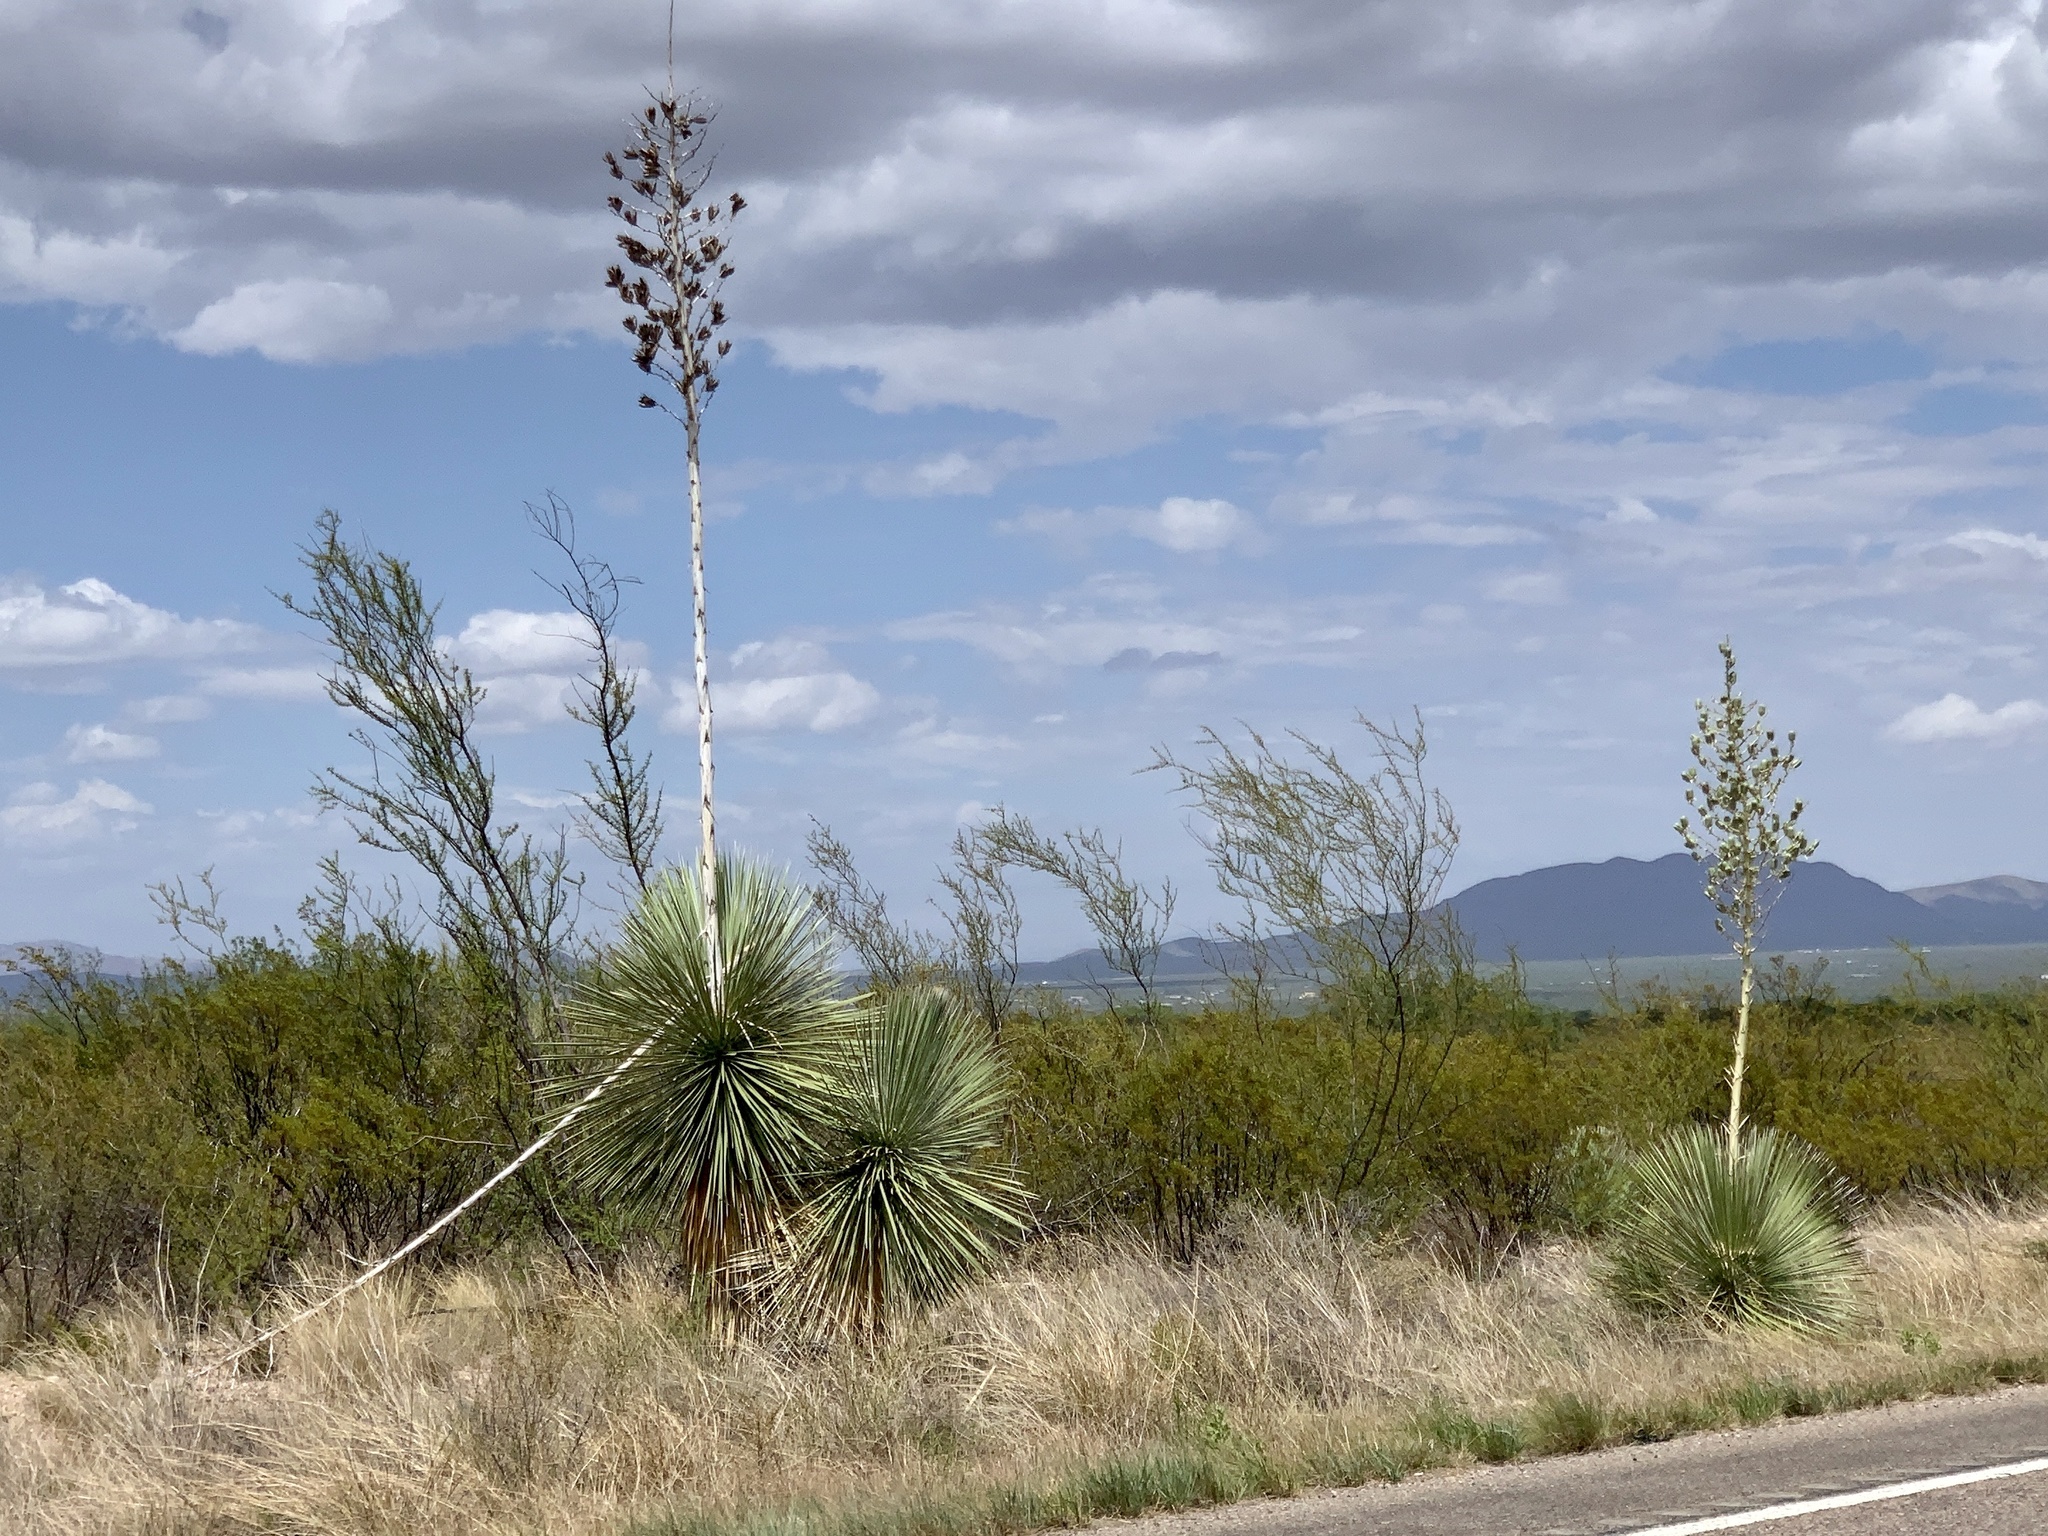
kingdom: Plantae
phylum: Tracheophyta
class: Liliopsida
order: Asparagales
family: Asparagaceae
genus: Yucca
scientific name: Yucca elata
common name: Palmella
